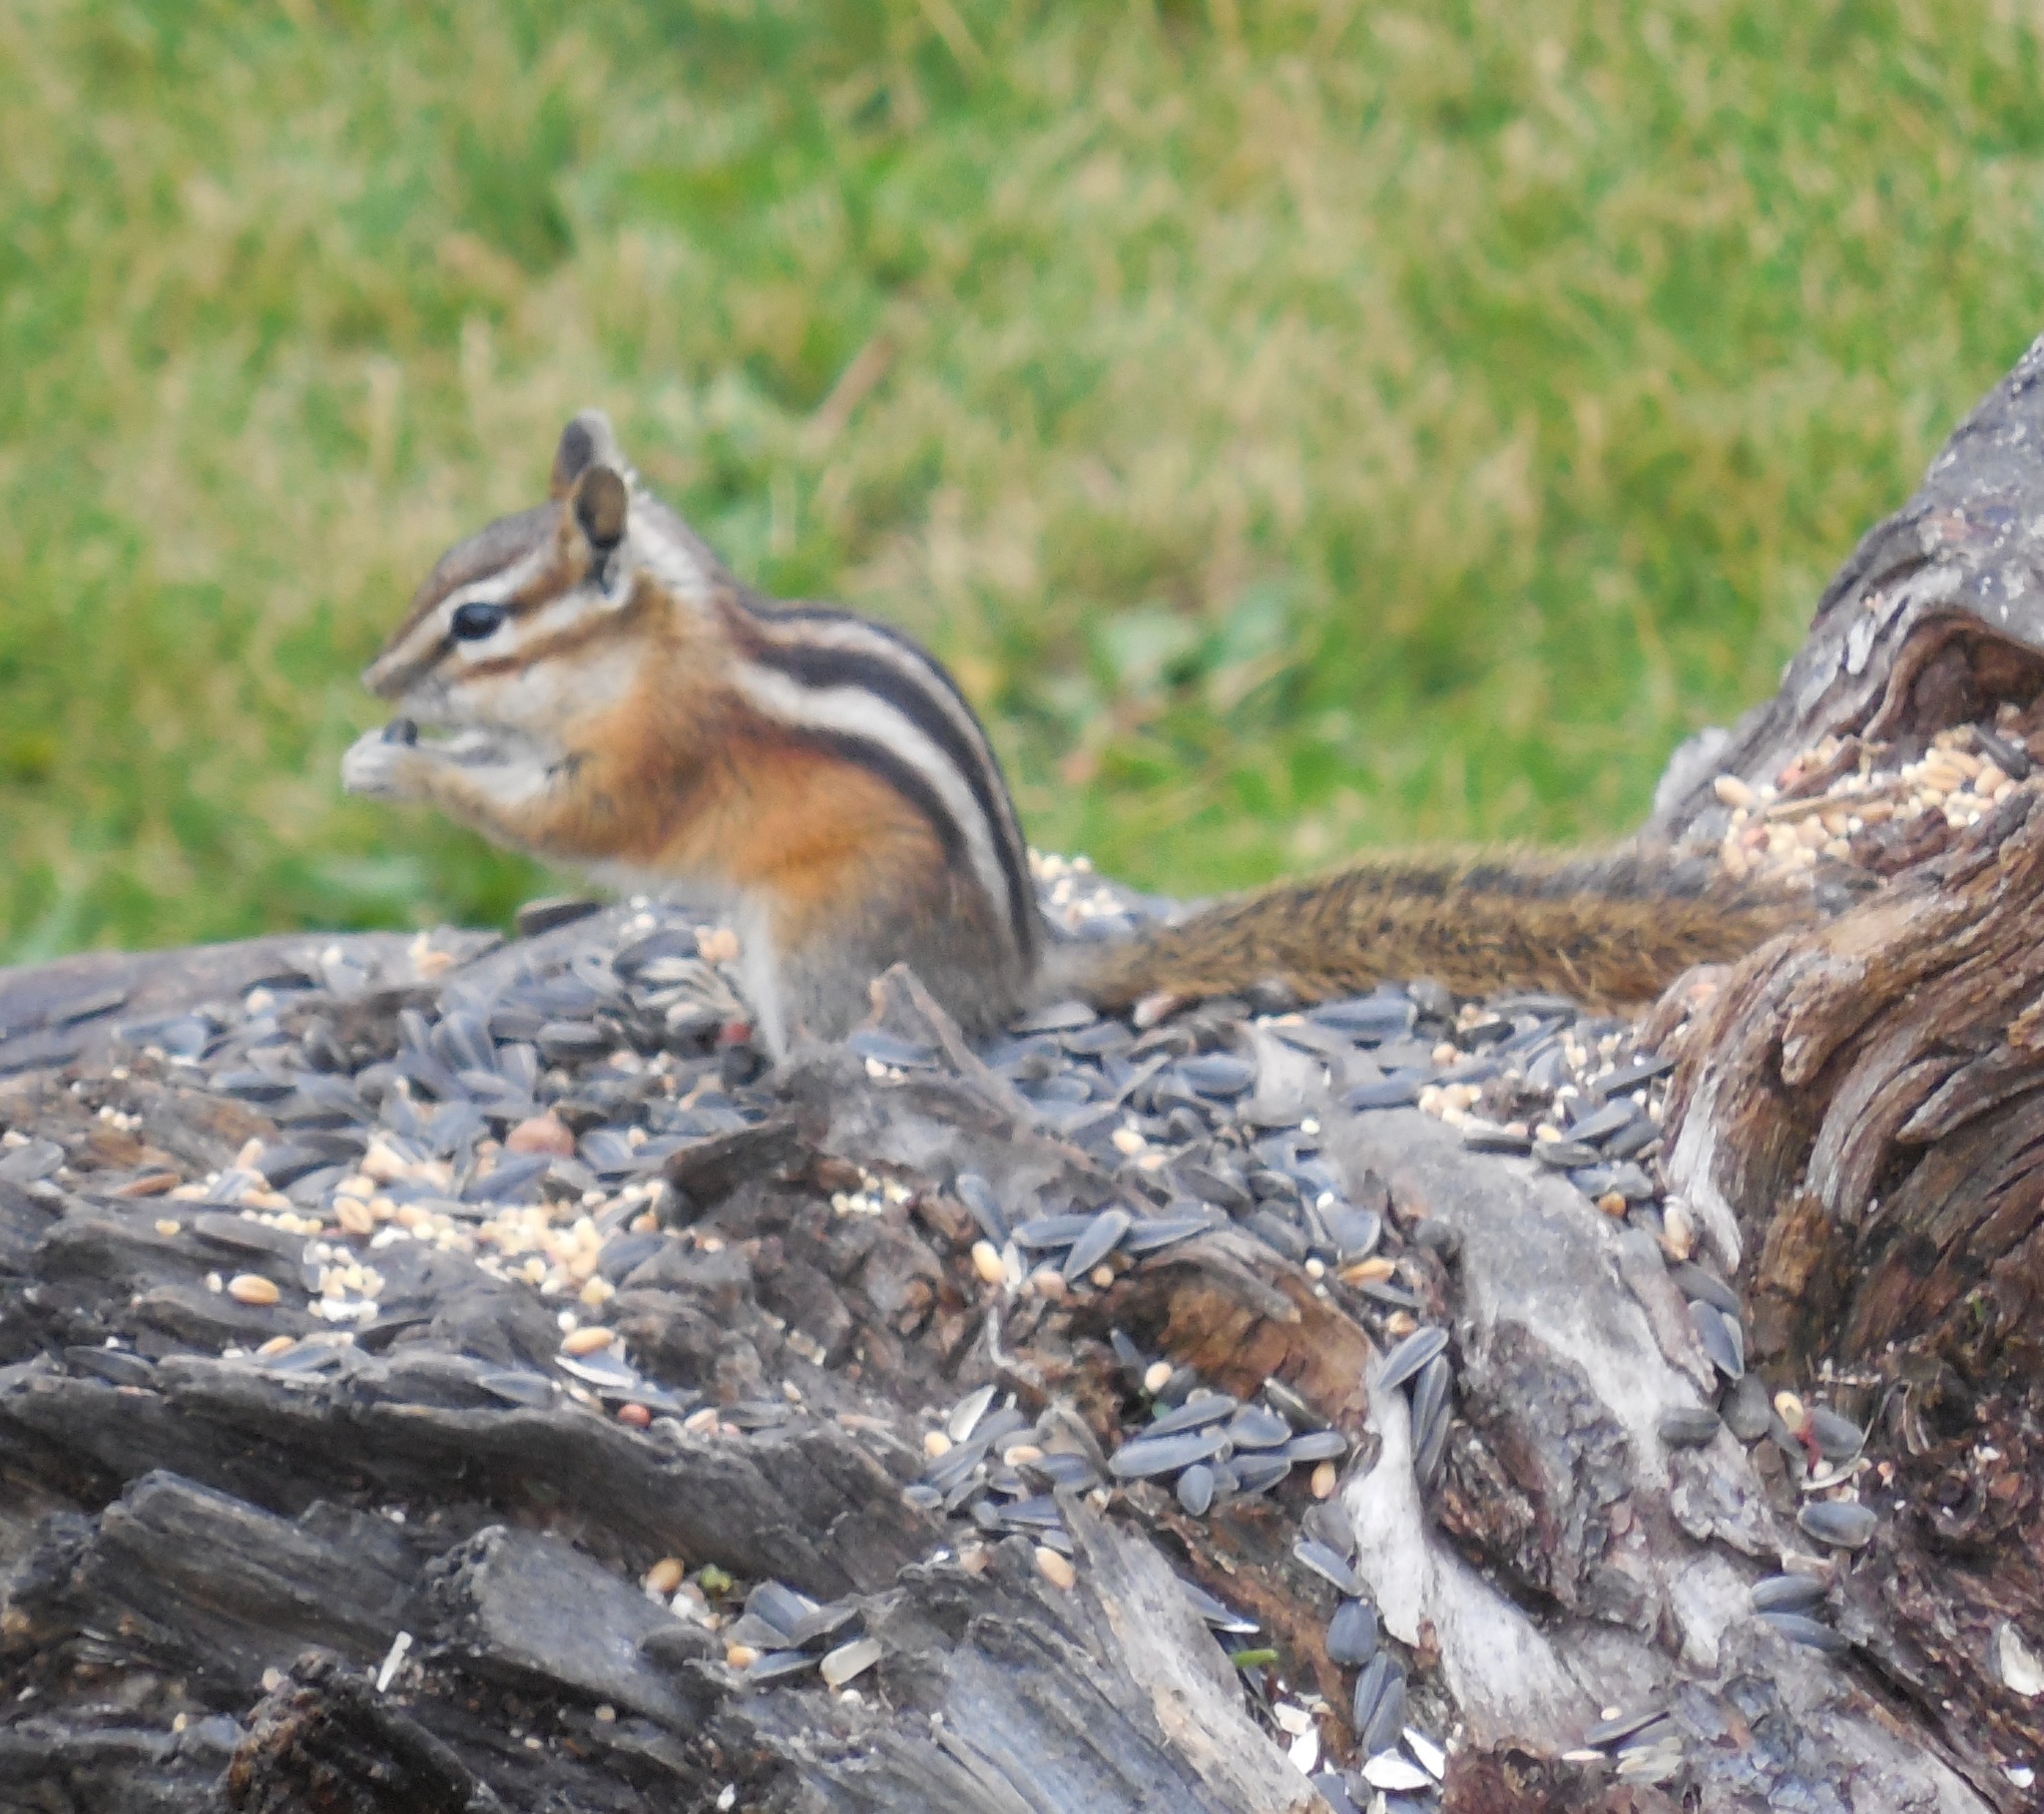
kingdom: Animalia
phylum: Chordata
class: Mammalia
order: Rodentia
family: Sciuridae
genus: Tamias
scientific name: Tamias amoenus
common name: Yellow-pine chipmunk
